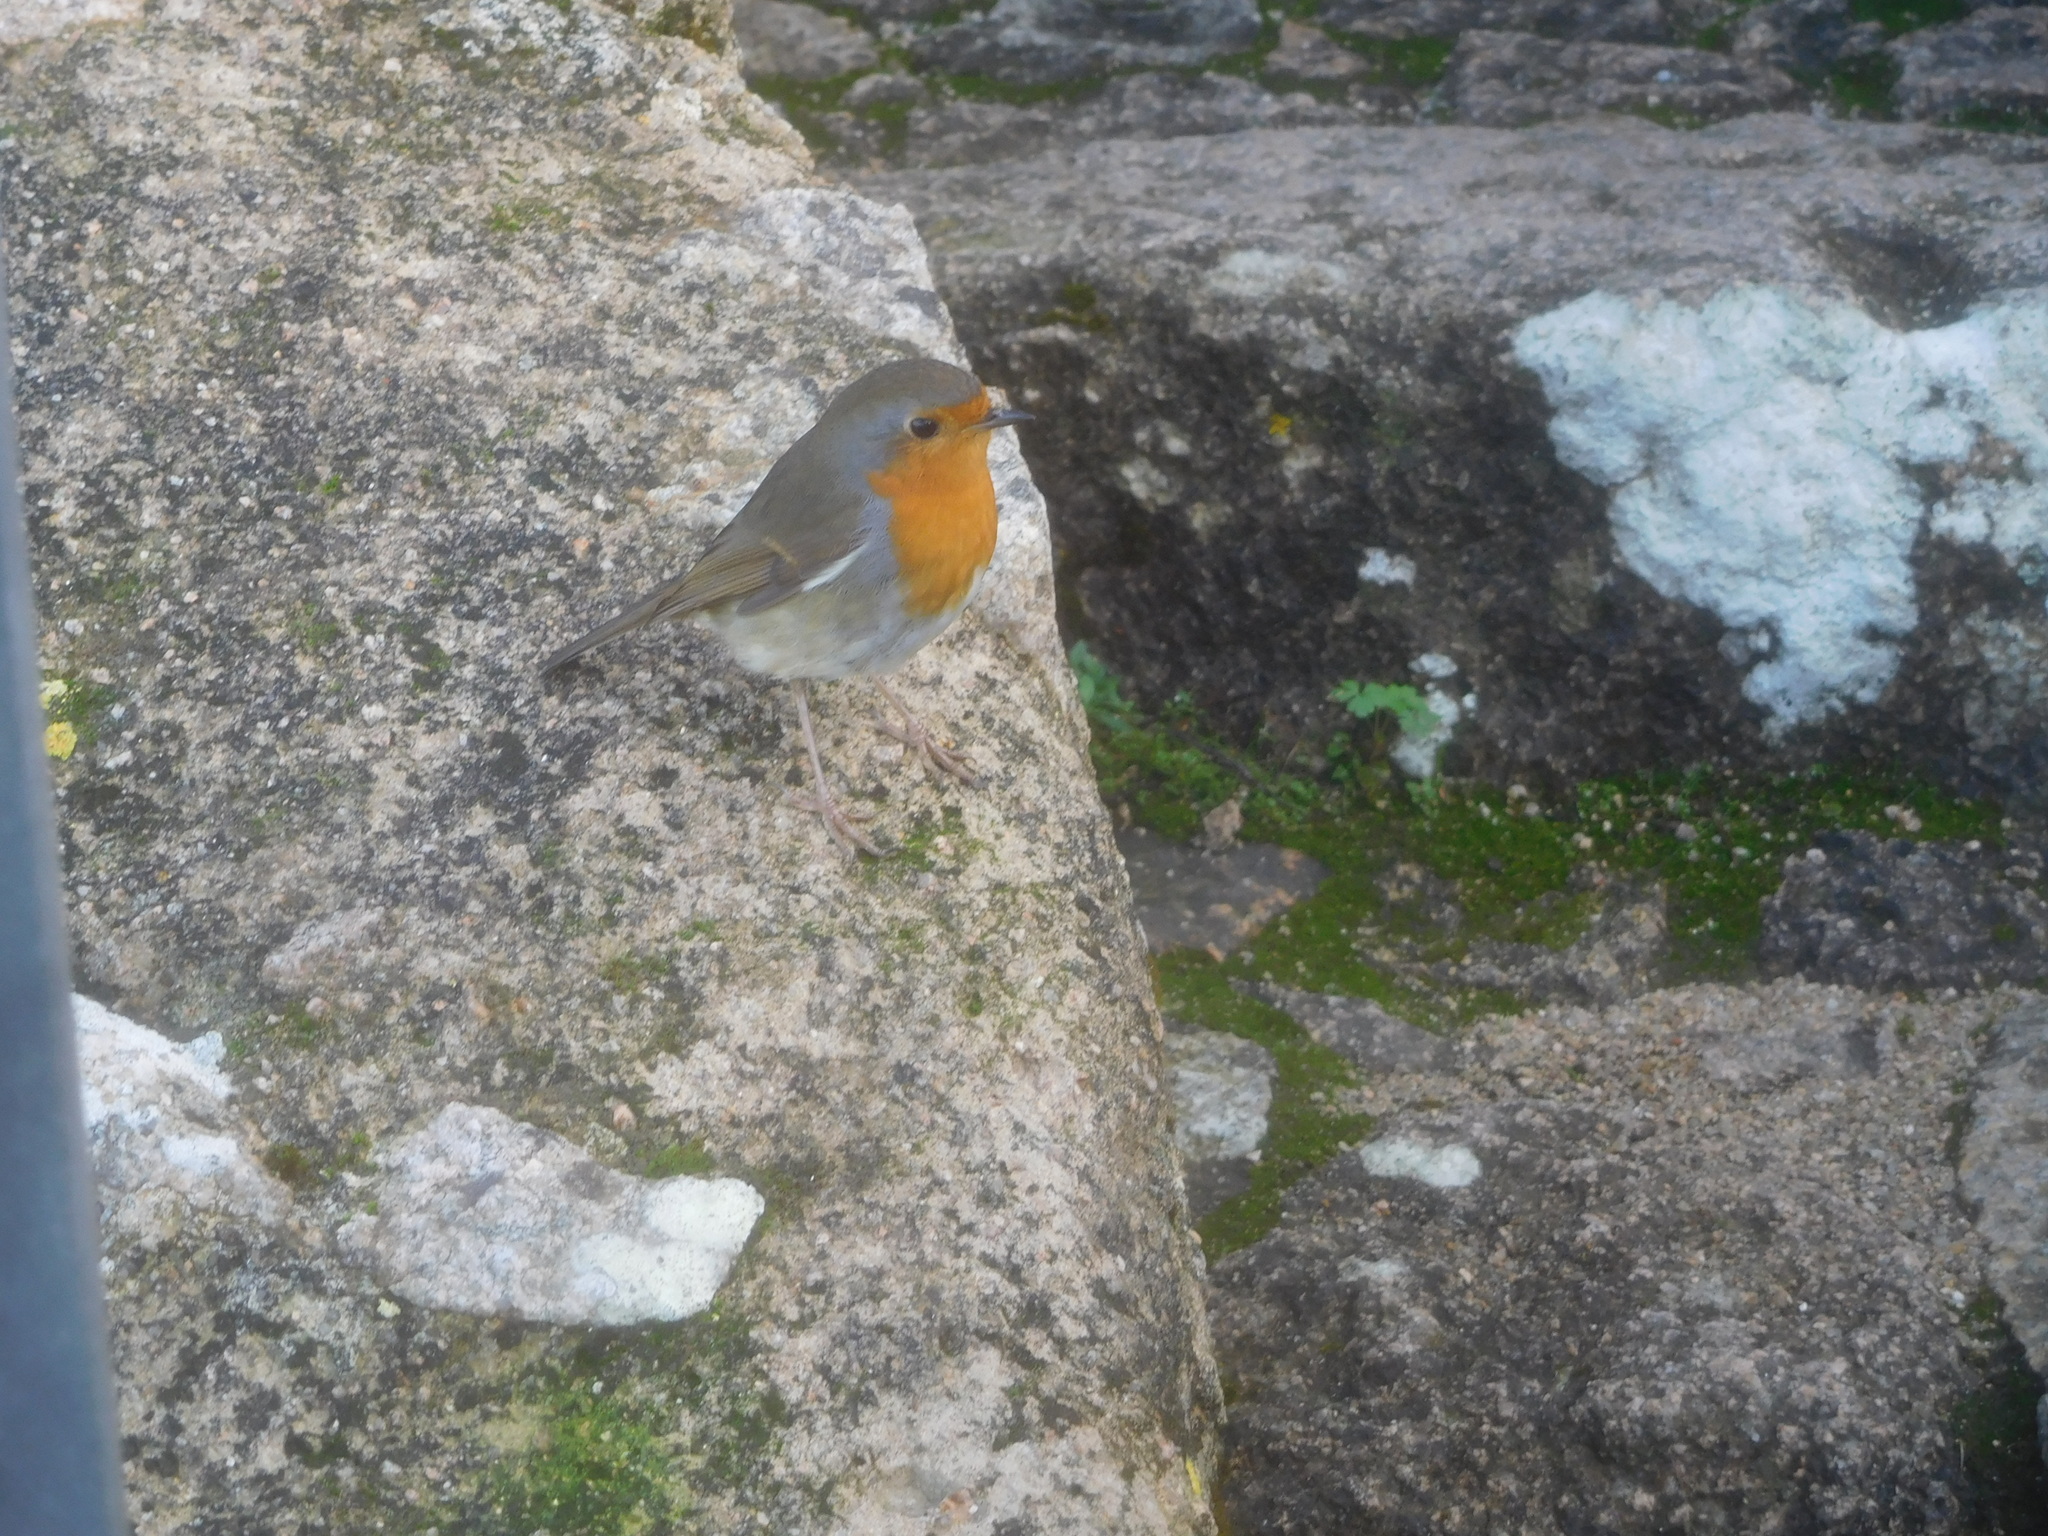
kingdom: Animalia
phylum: Chordata
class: Aves
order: Passeriformes
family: Muscicapidae
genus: Erithacus
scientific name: Erithacus rubecula
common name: European robin
